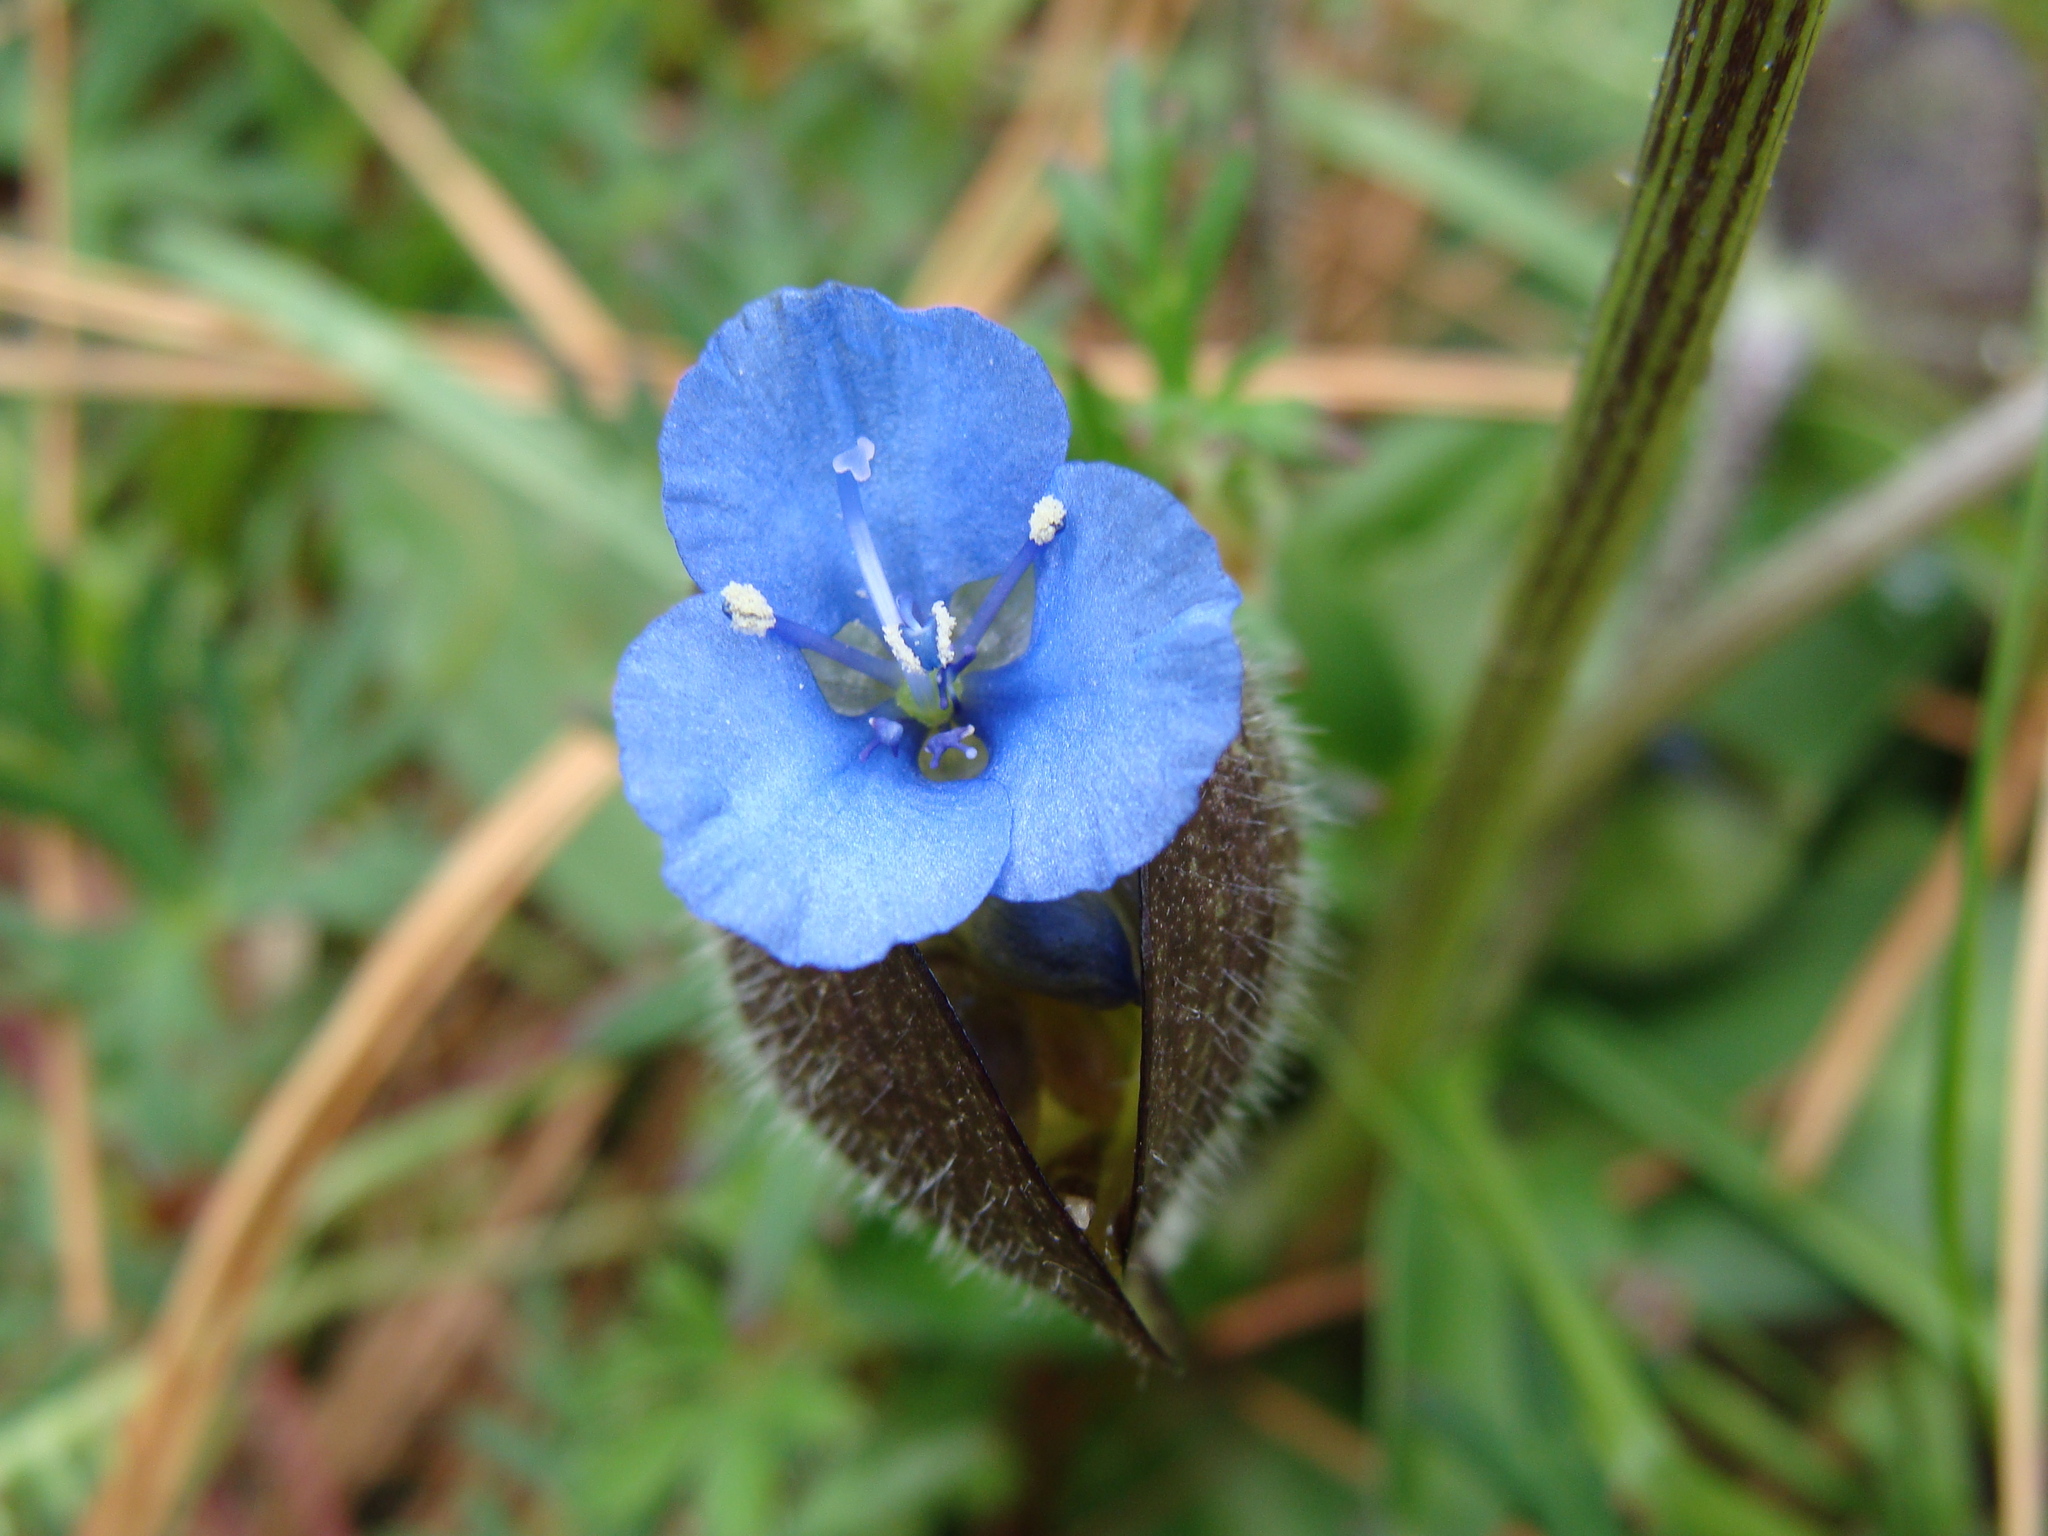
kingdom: Plantae
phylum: Tracheophyta
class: Liliopsida
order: Commelinales
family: Commelinaceae
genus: Commelina
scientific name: Commelina orchioides
